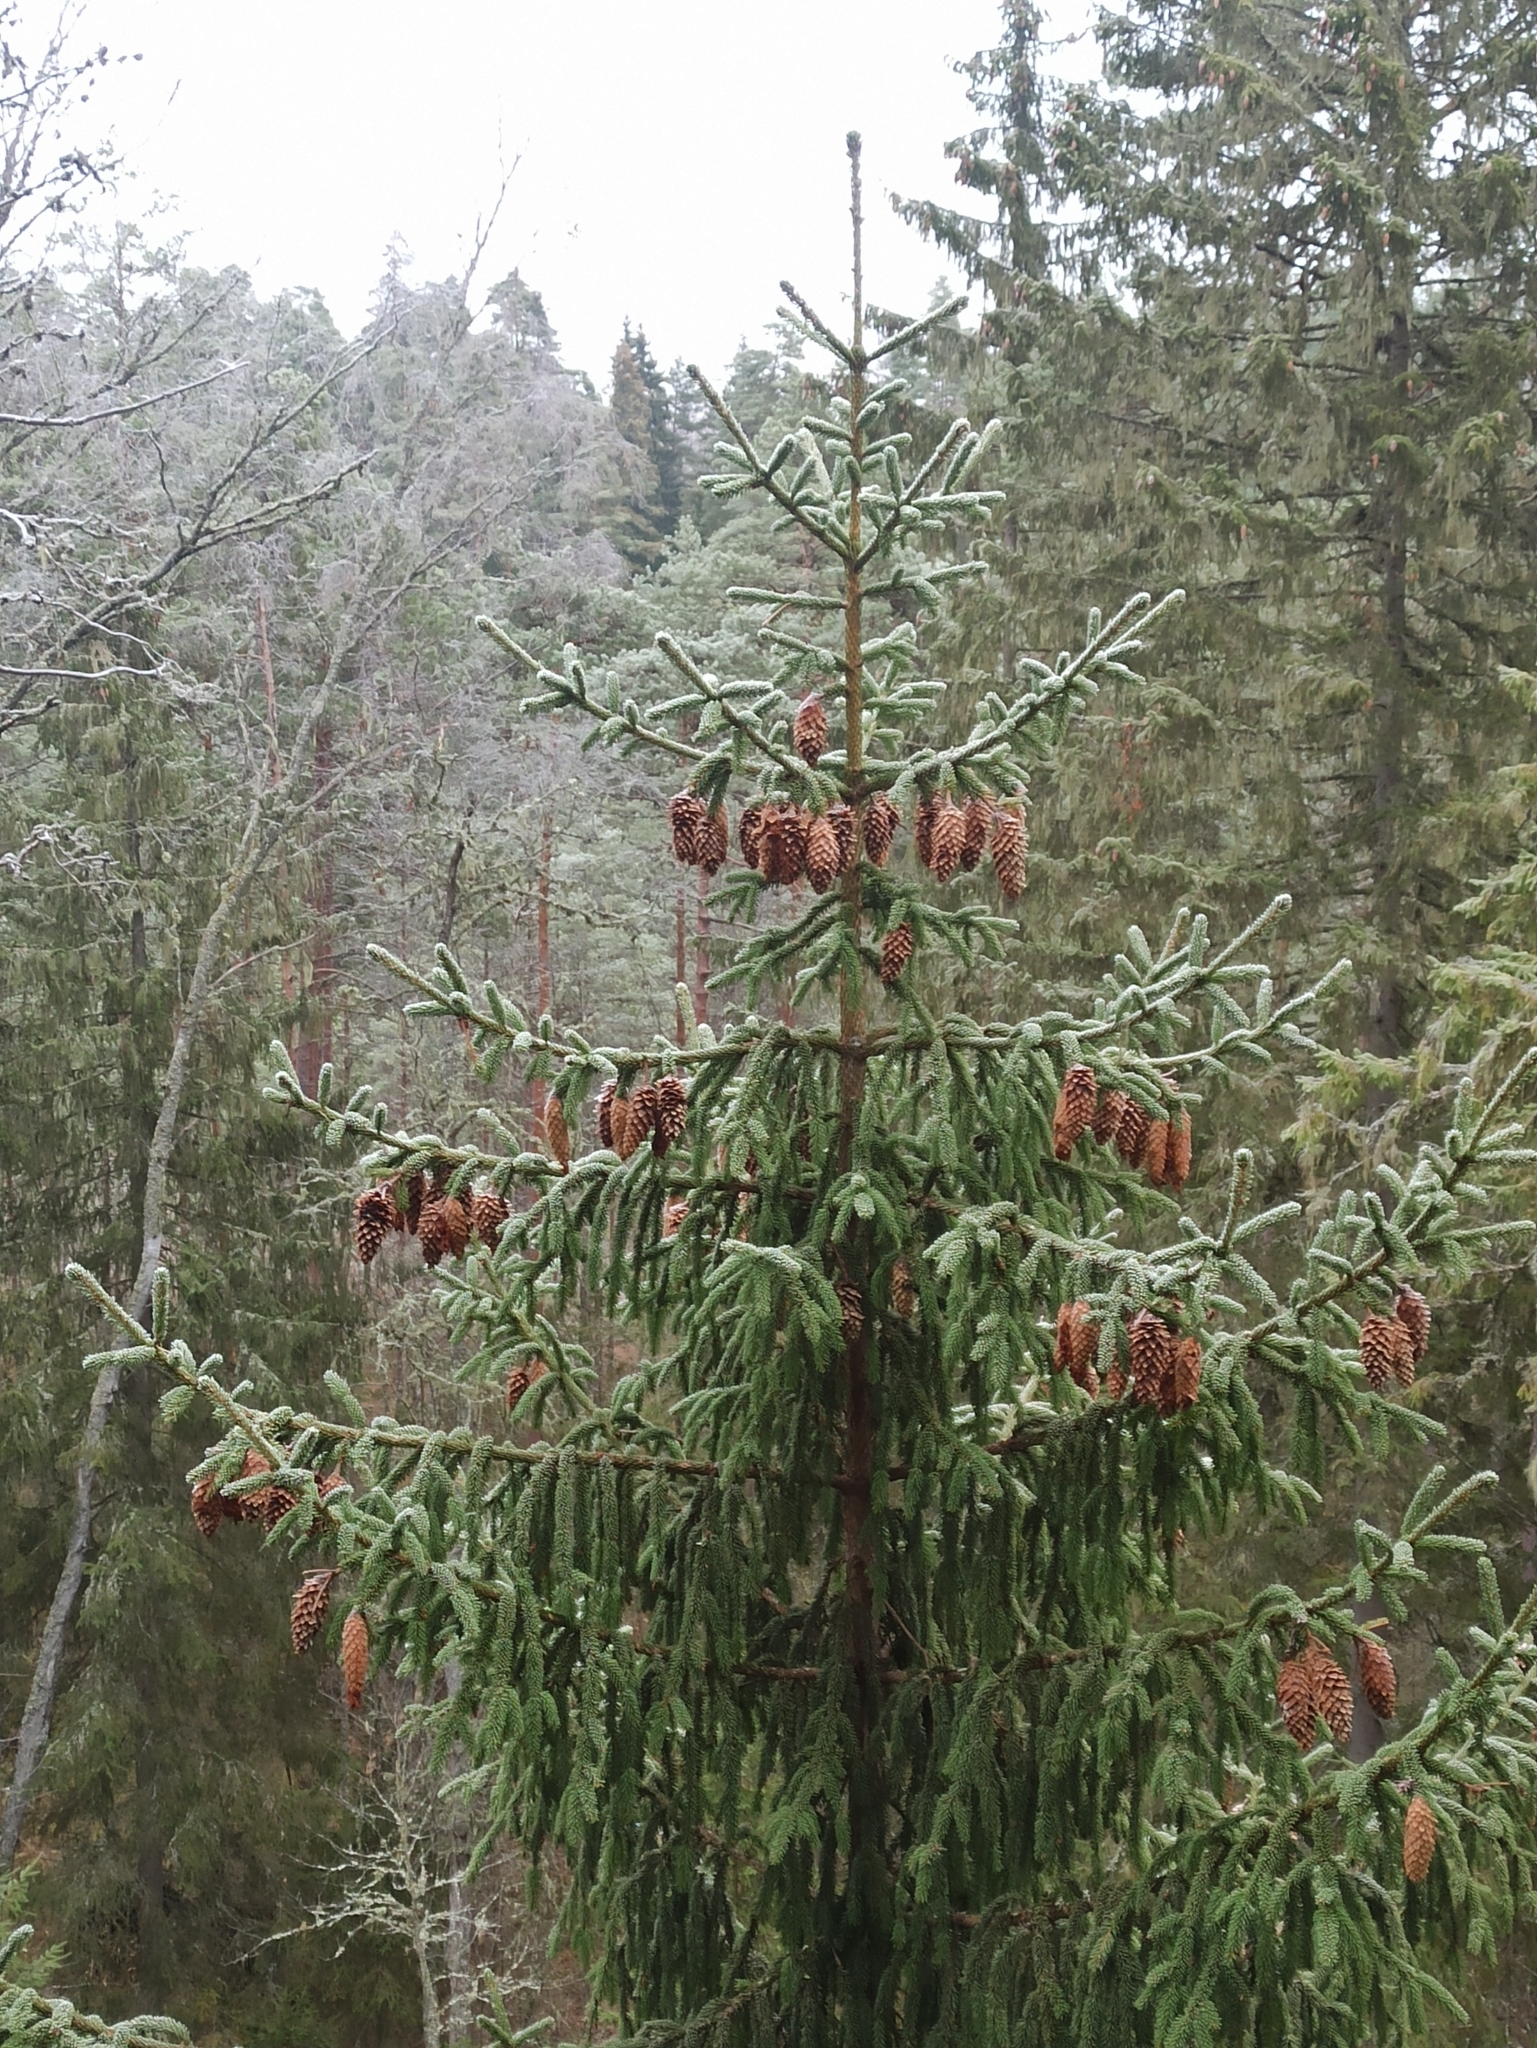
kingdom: Plantae
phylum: Tracheophyta
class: Pinopsida
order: Pinales
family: Pinaceae
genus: Picea
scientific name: Picea abies
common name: Norway spruce
